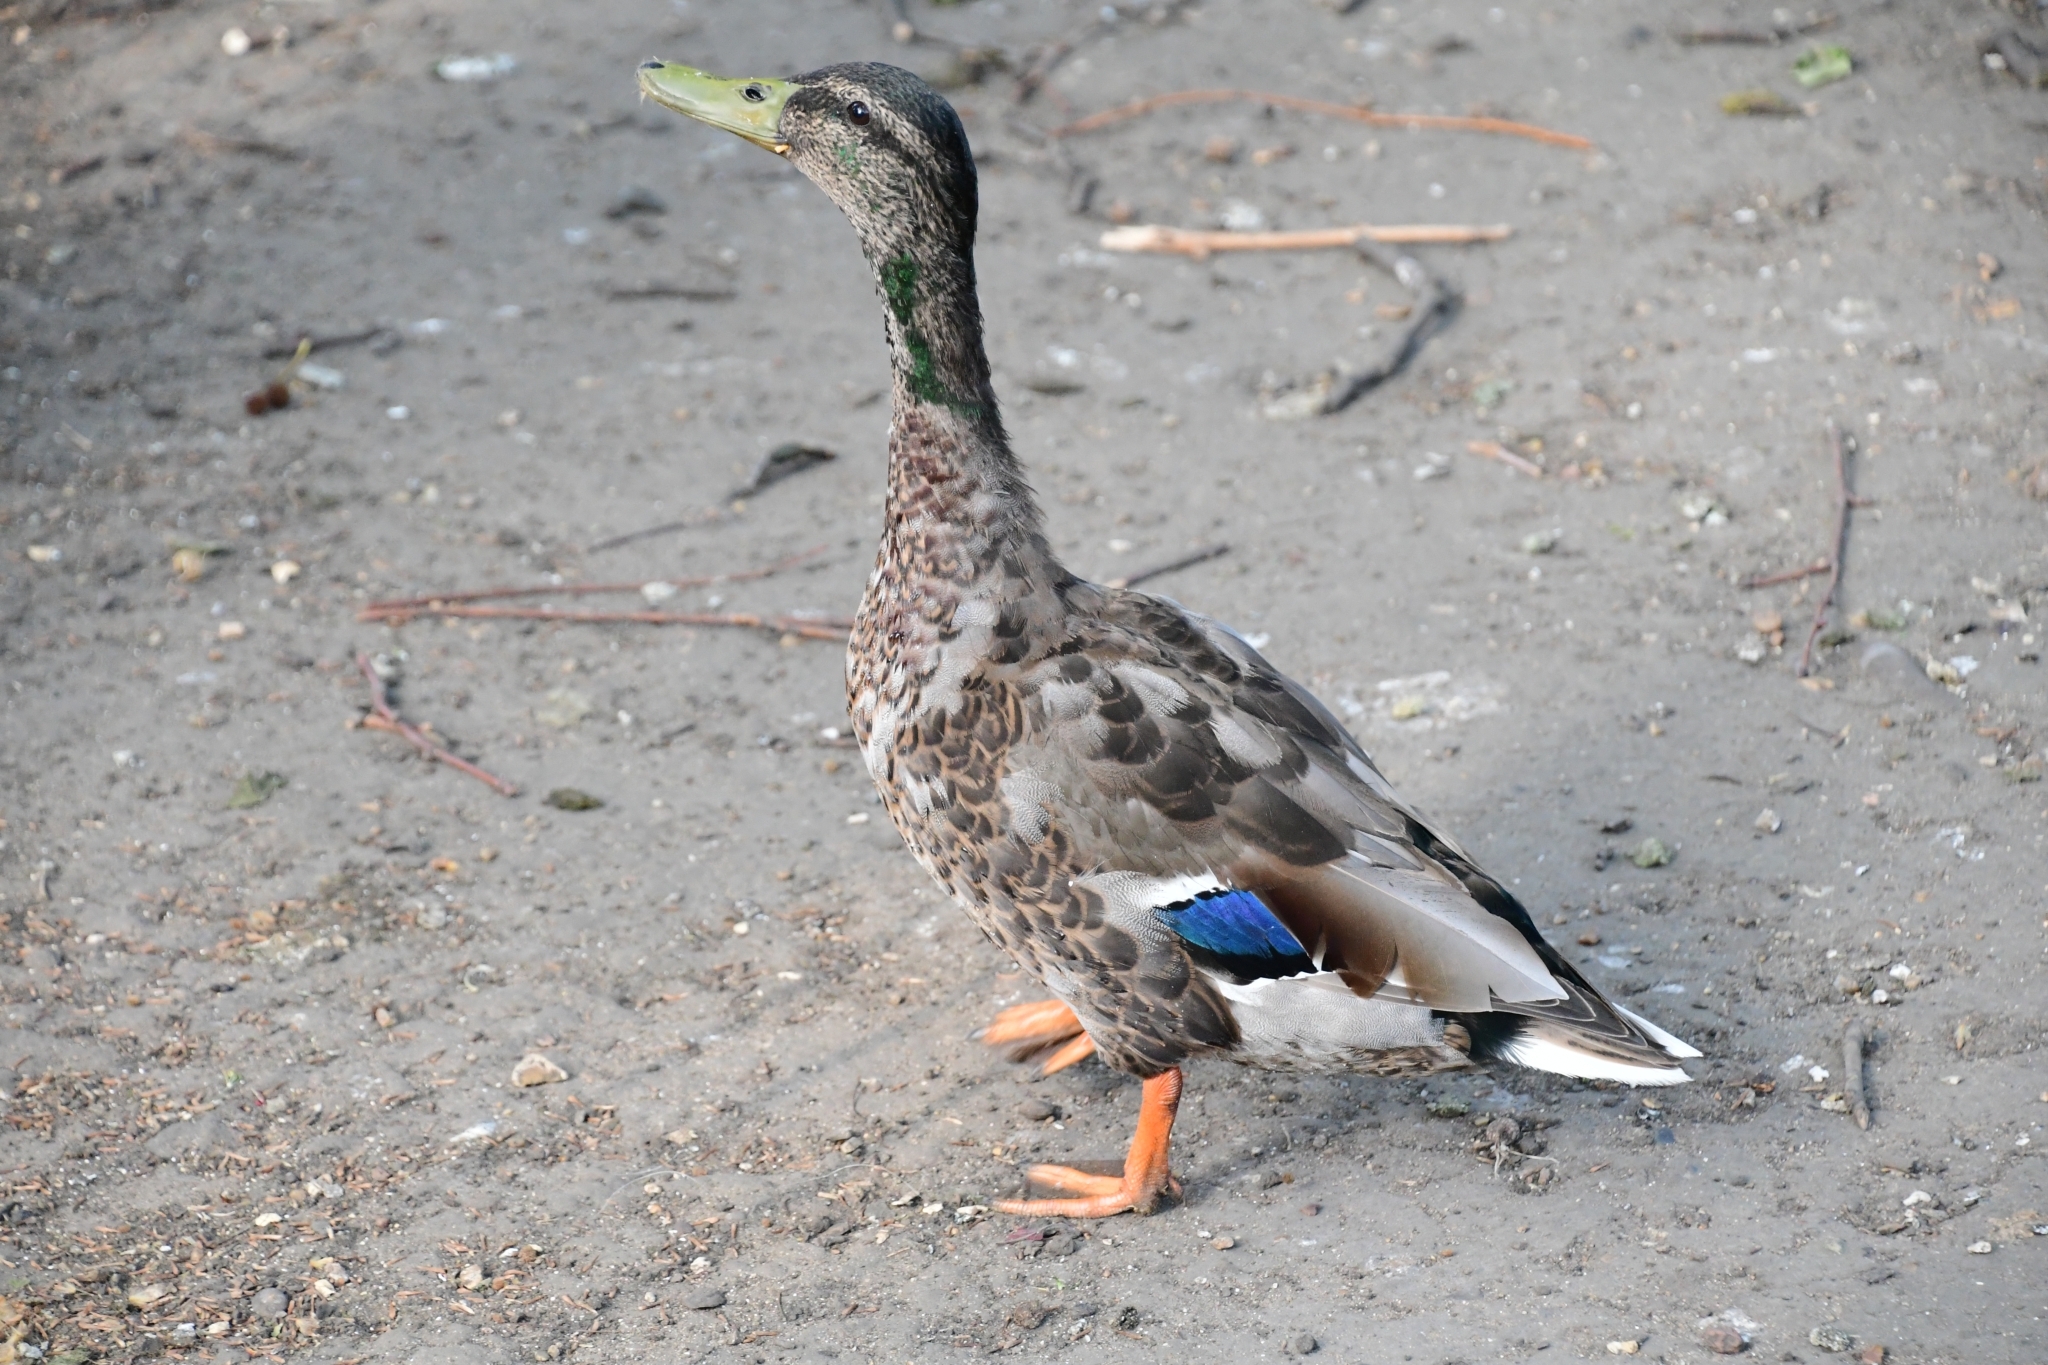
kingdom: Animalia
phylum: Chordata
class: Aves
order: Anseriformes
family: Anatidae
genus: Anas
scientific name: Anas platyrhynchos
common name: Mallard
